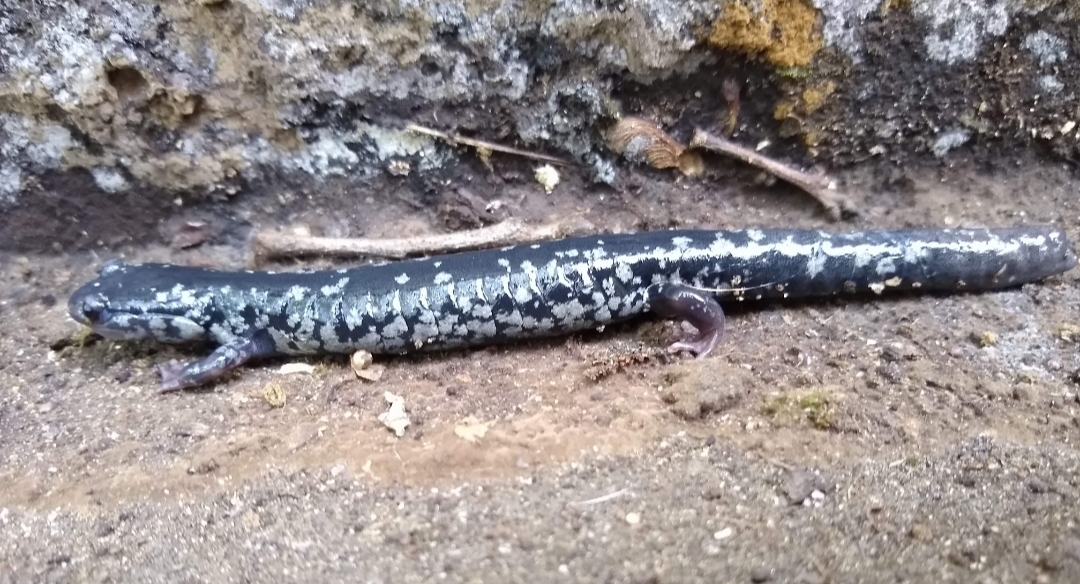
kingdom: Animalia
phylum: Chordata
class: Amphibia
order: Caudata
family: Plethodontidae
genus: Plethodon
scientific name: Plethodon cylindraceus
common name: White-spotted slimy salamander
